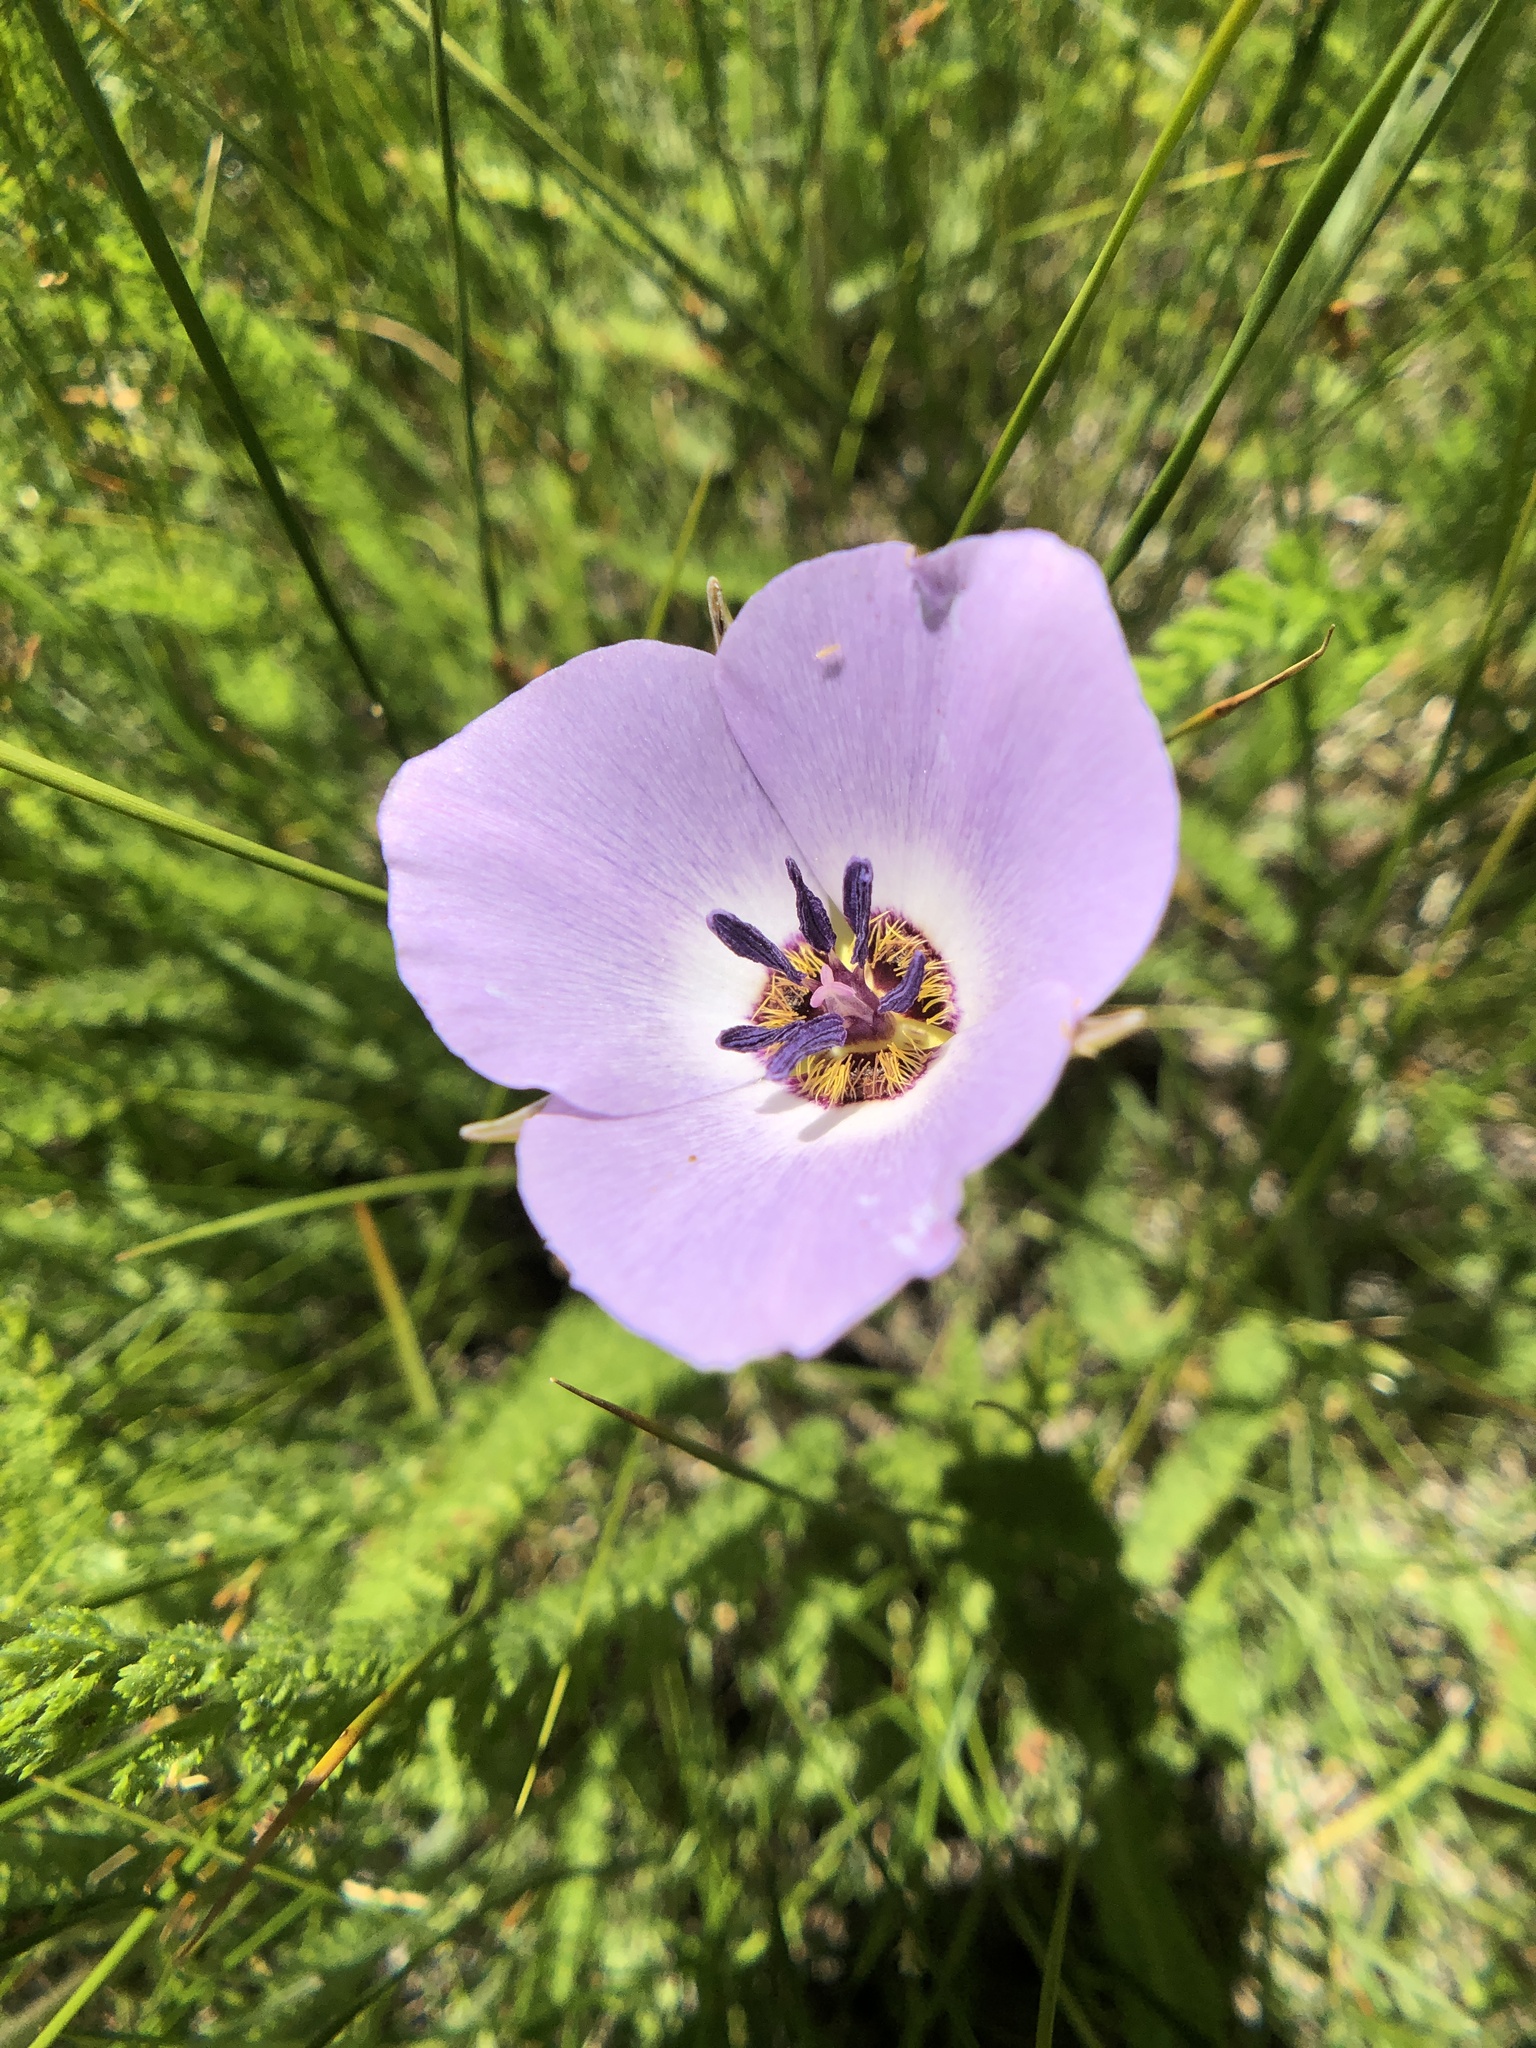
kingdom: Plantae
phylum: Tracheophyta
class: Liliopsida
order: Liliales
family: Liliaceae
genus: Calochortus
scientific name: Calochortus invenustus
